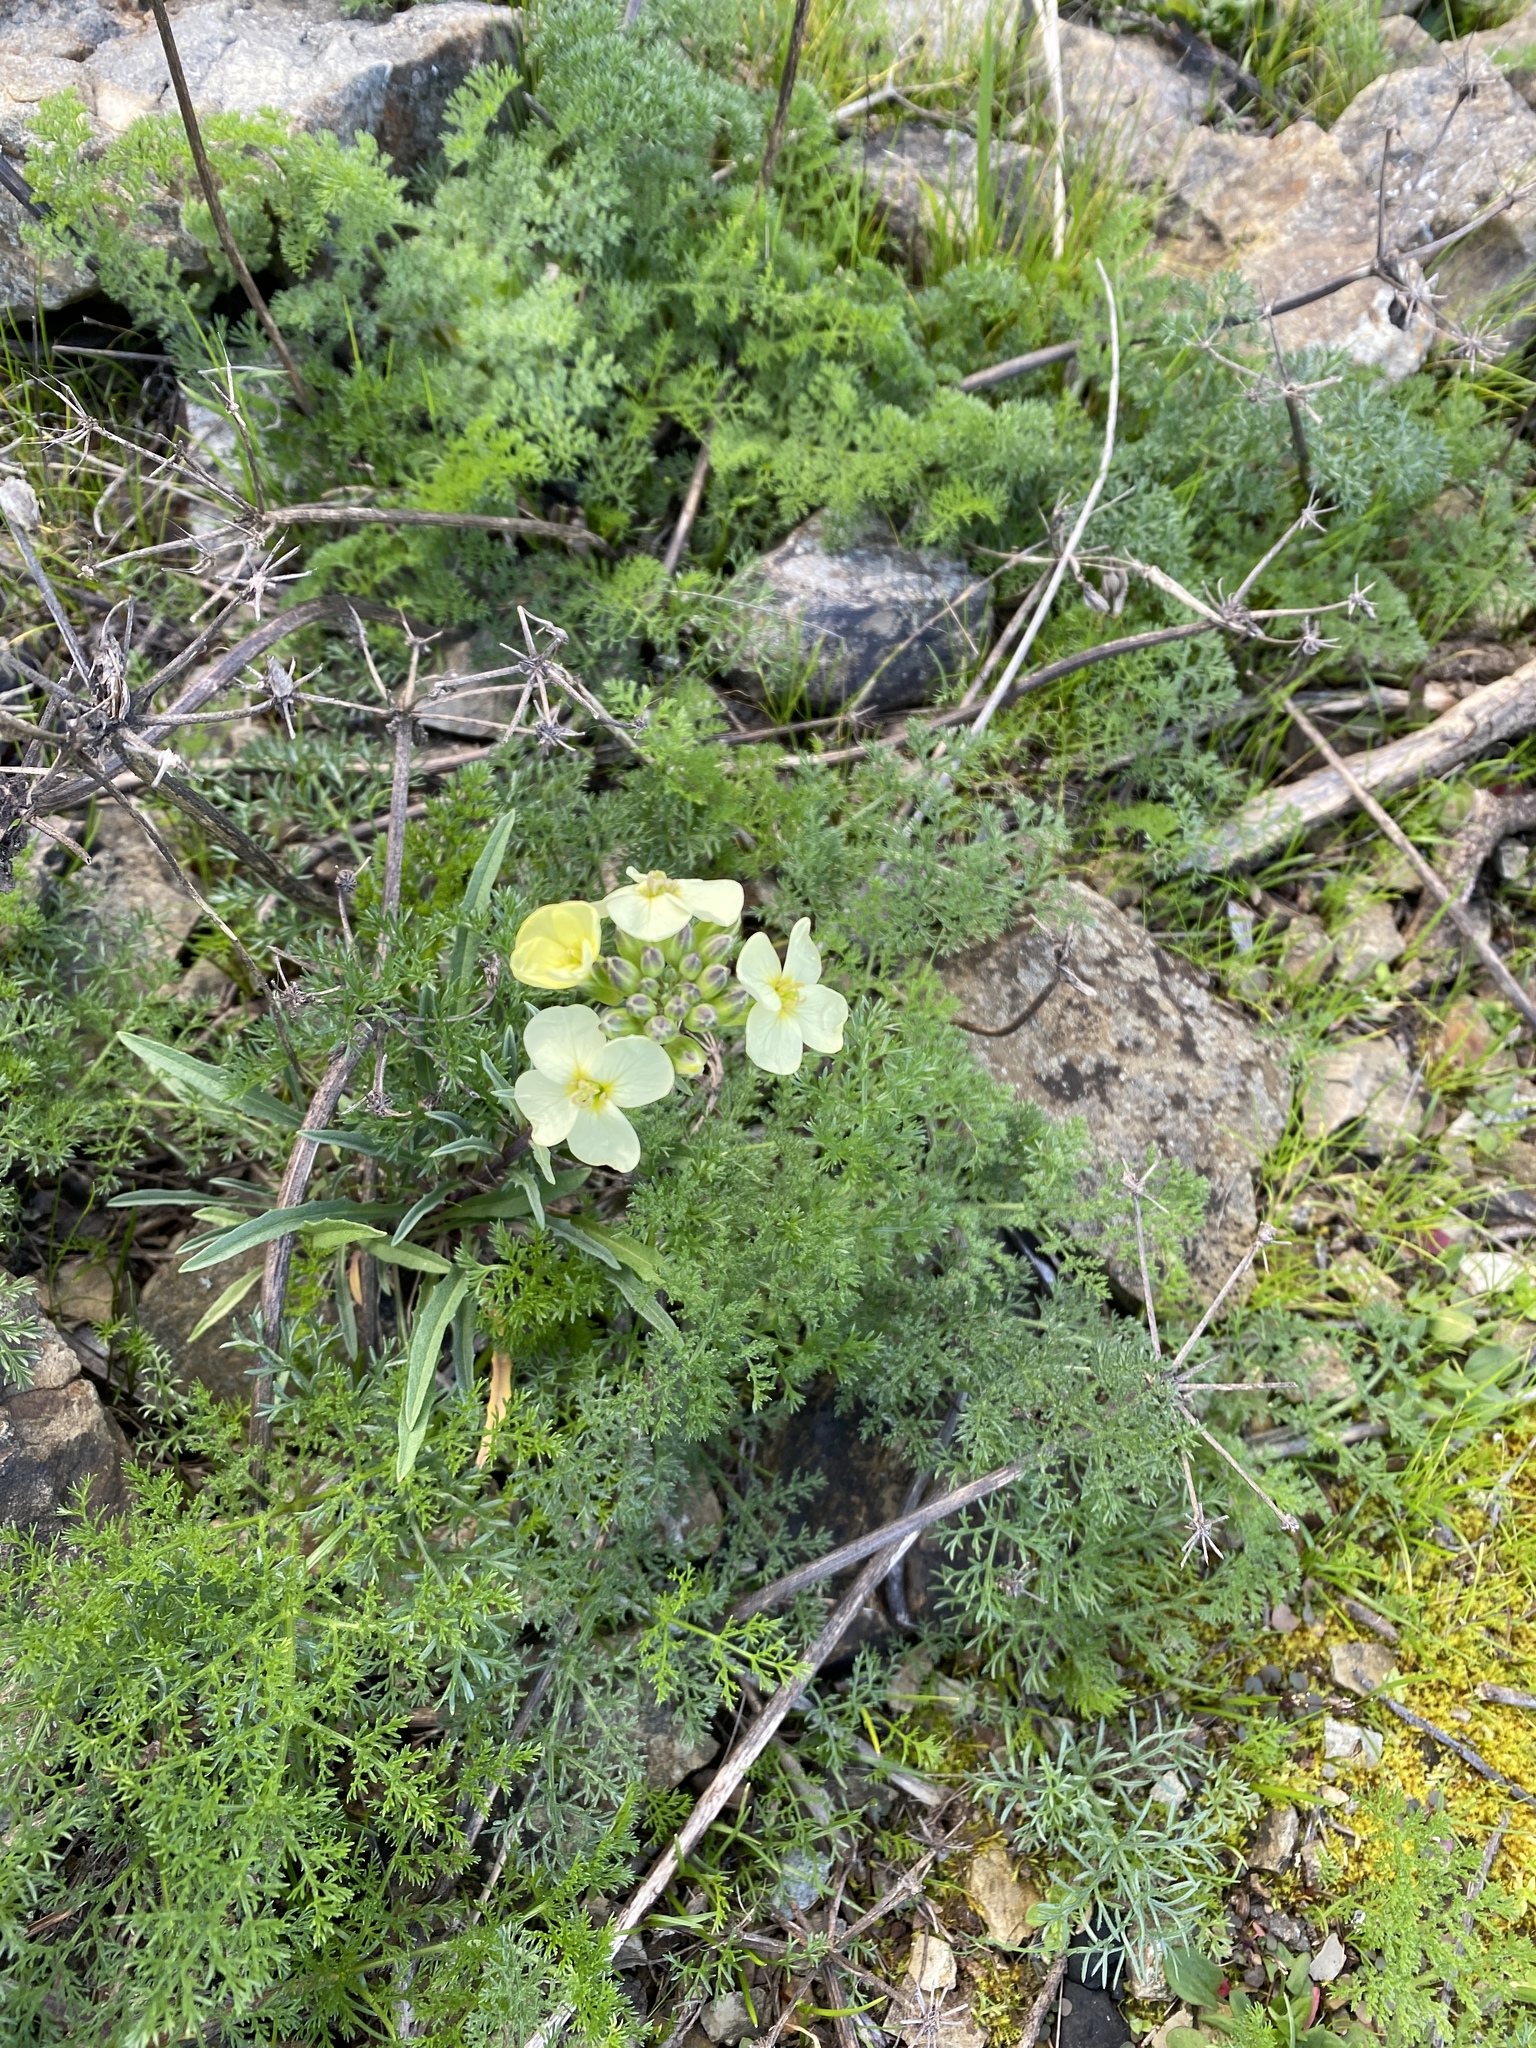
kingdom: Plantae
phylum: Tracheophyta
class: Magnoliopsida
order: Brassicales
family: Brassicaceae
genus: Erysimum
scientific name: Erysimum franciscanum
